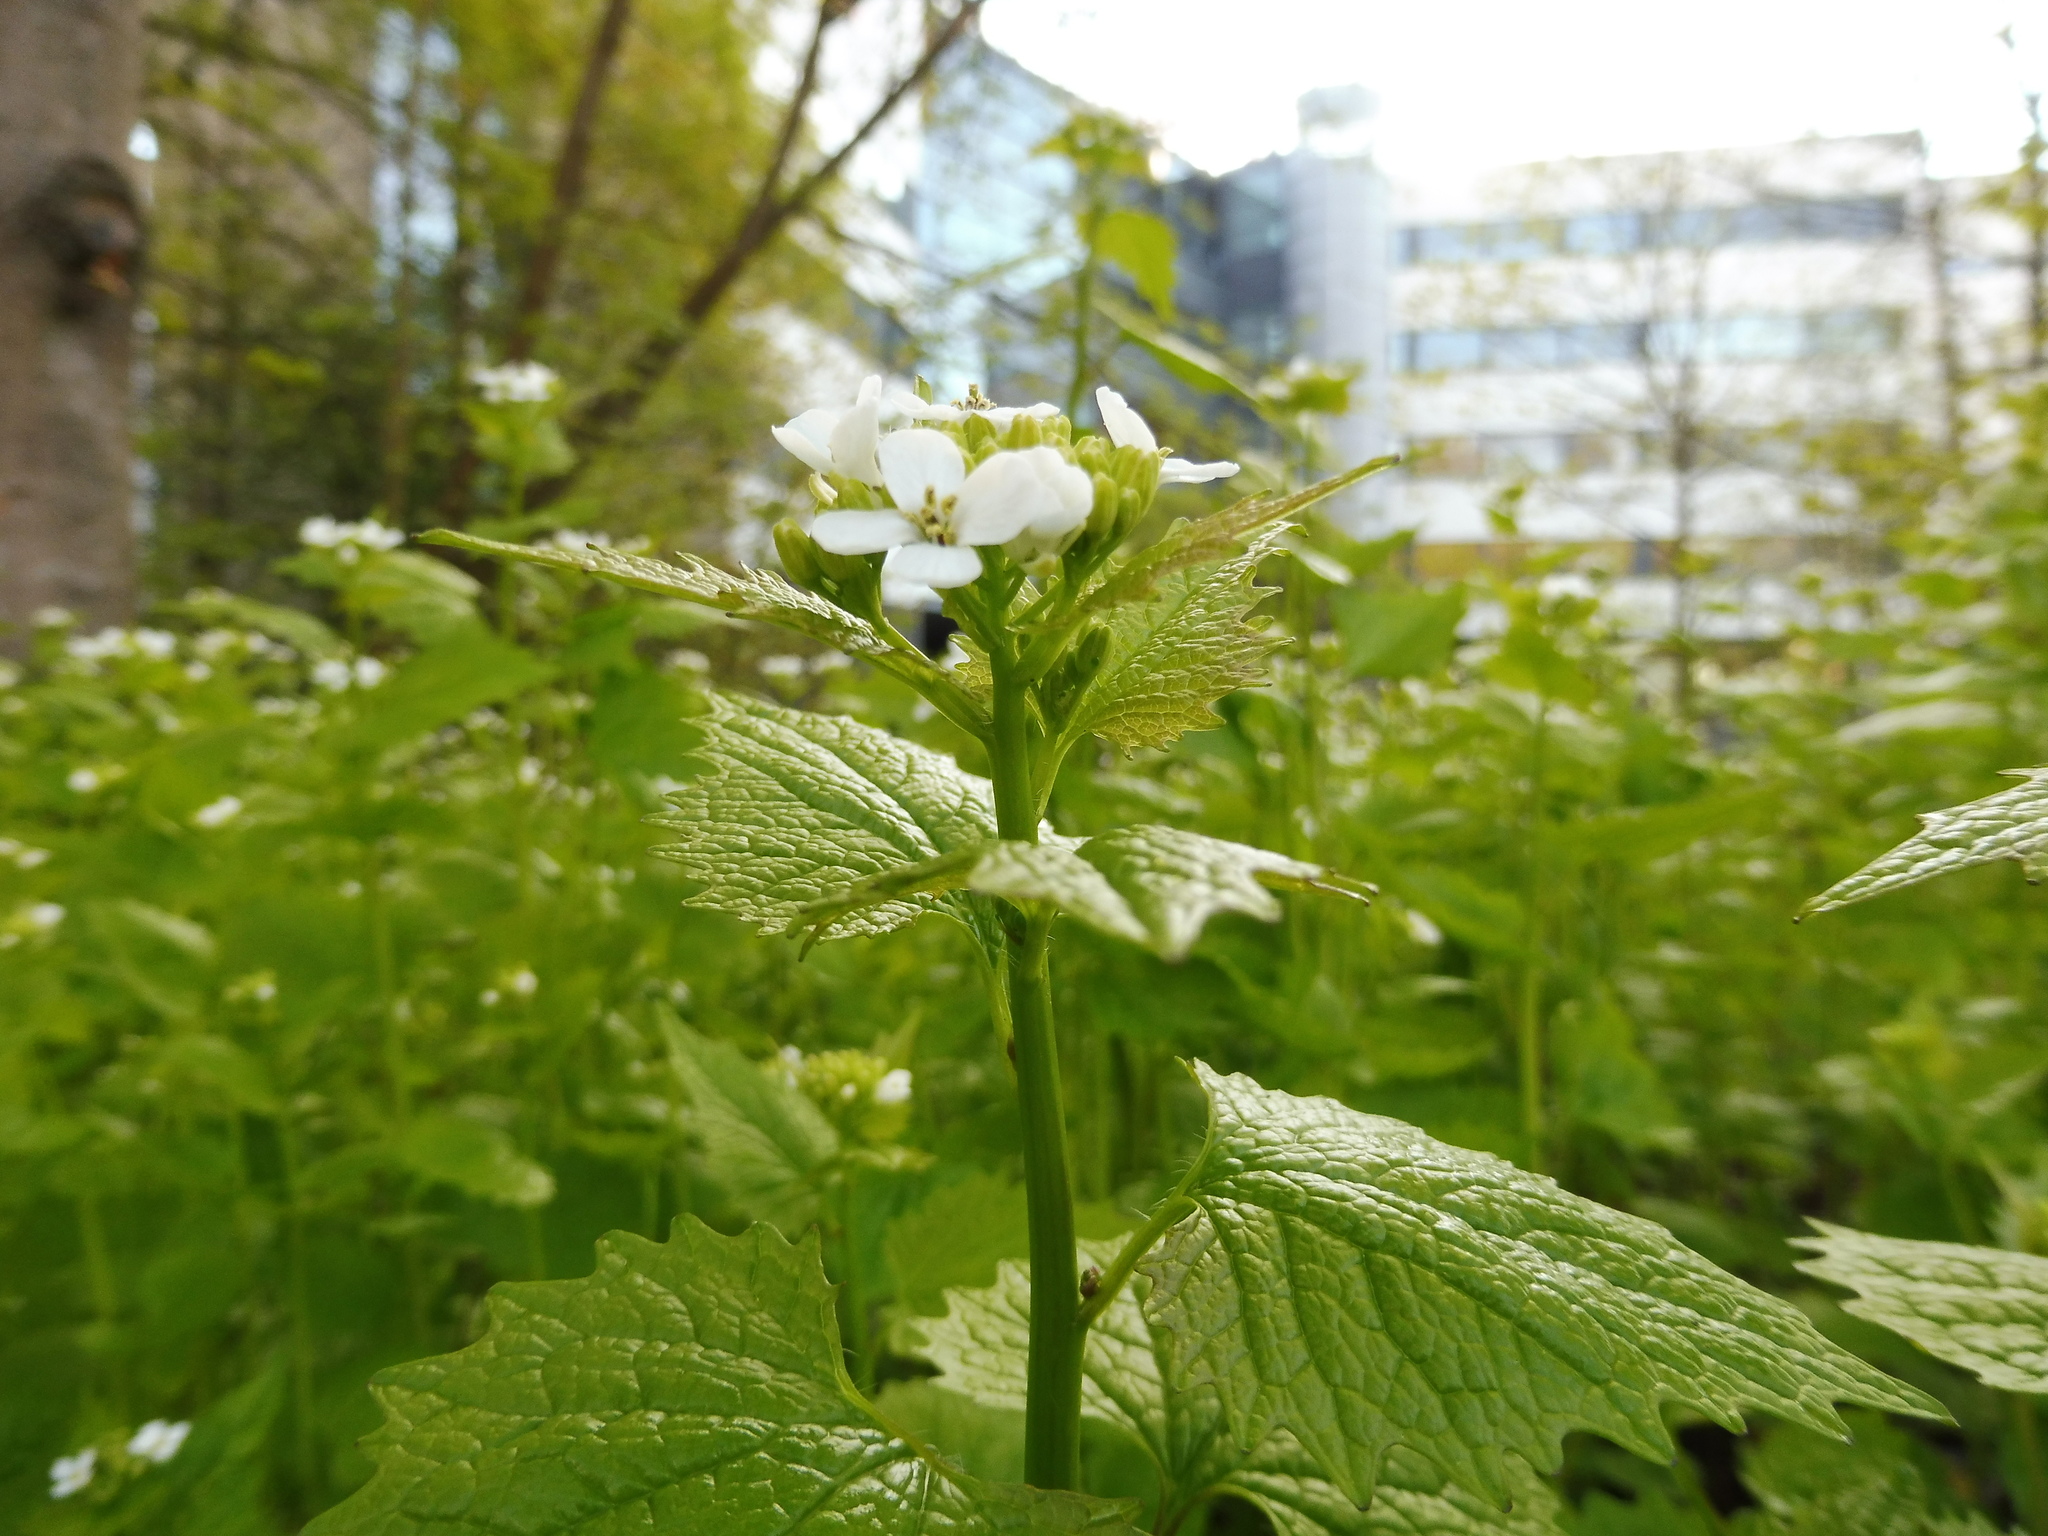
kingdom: Plantae
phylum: Tracheophyta
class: Magnoliopsida
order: Brassicales
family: Brassicaceae
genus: Alliaria
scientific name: Alliaria petiolata
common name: Garlic mustard
